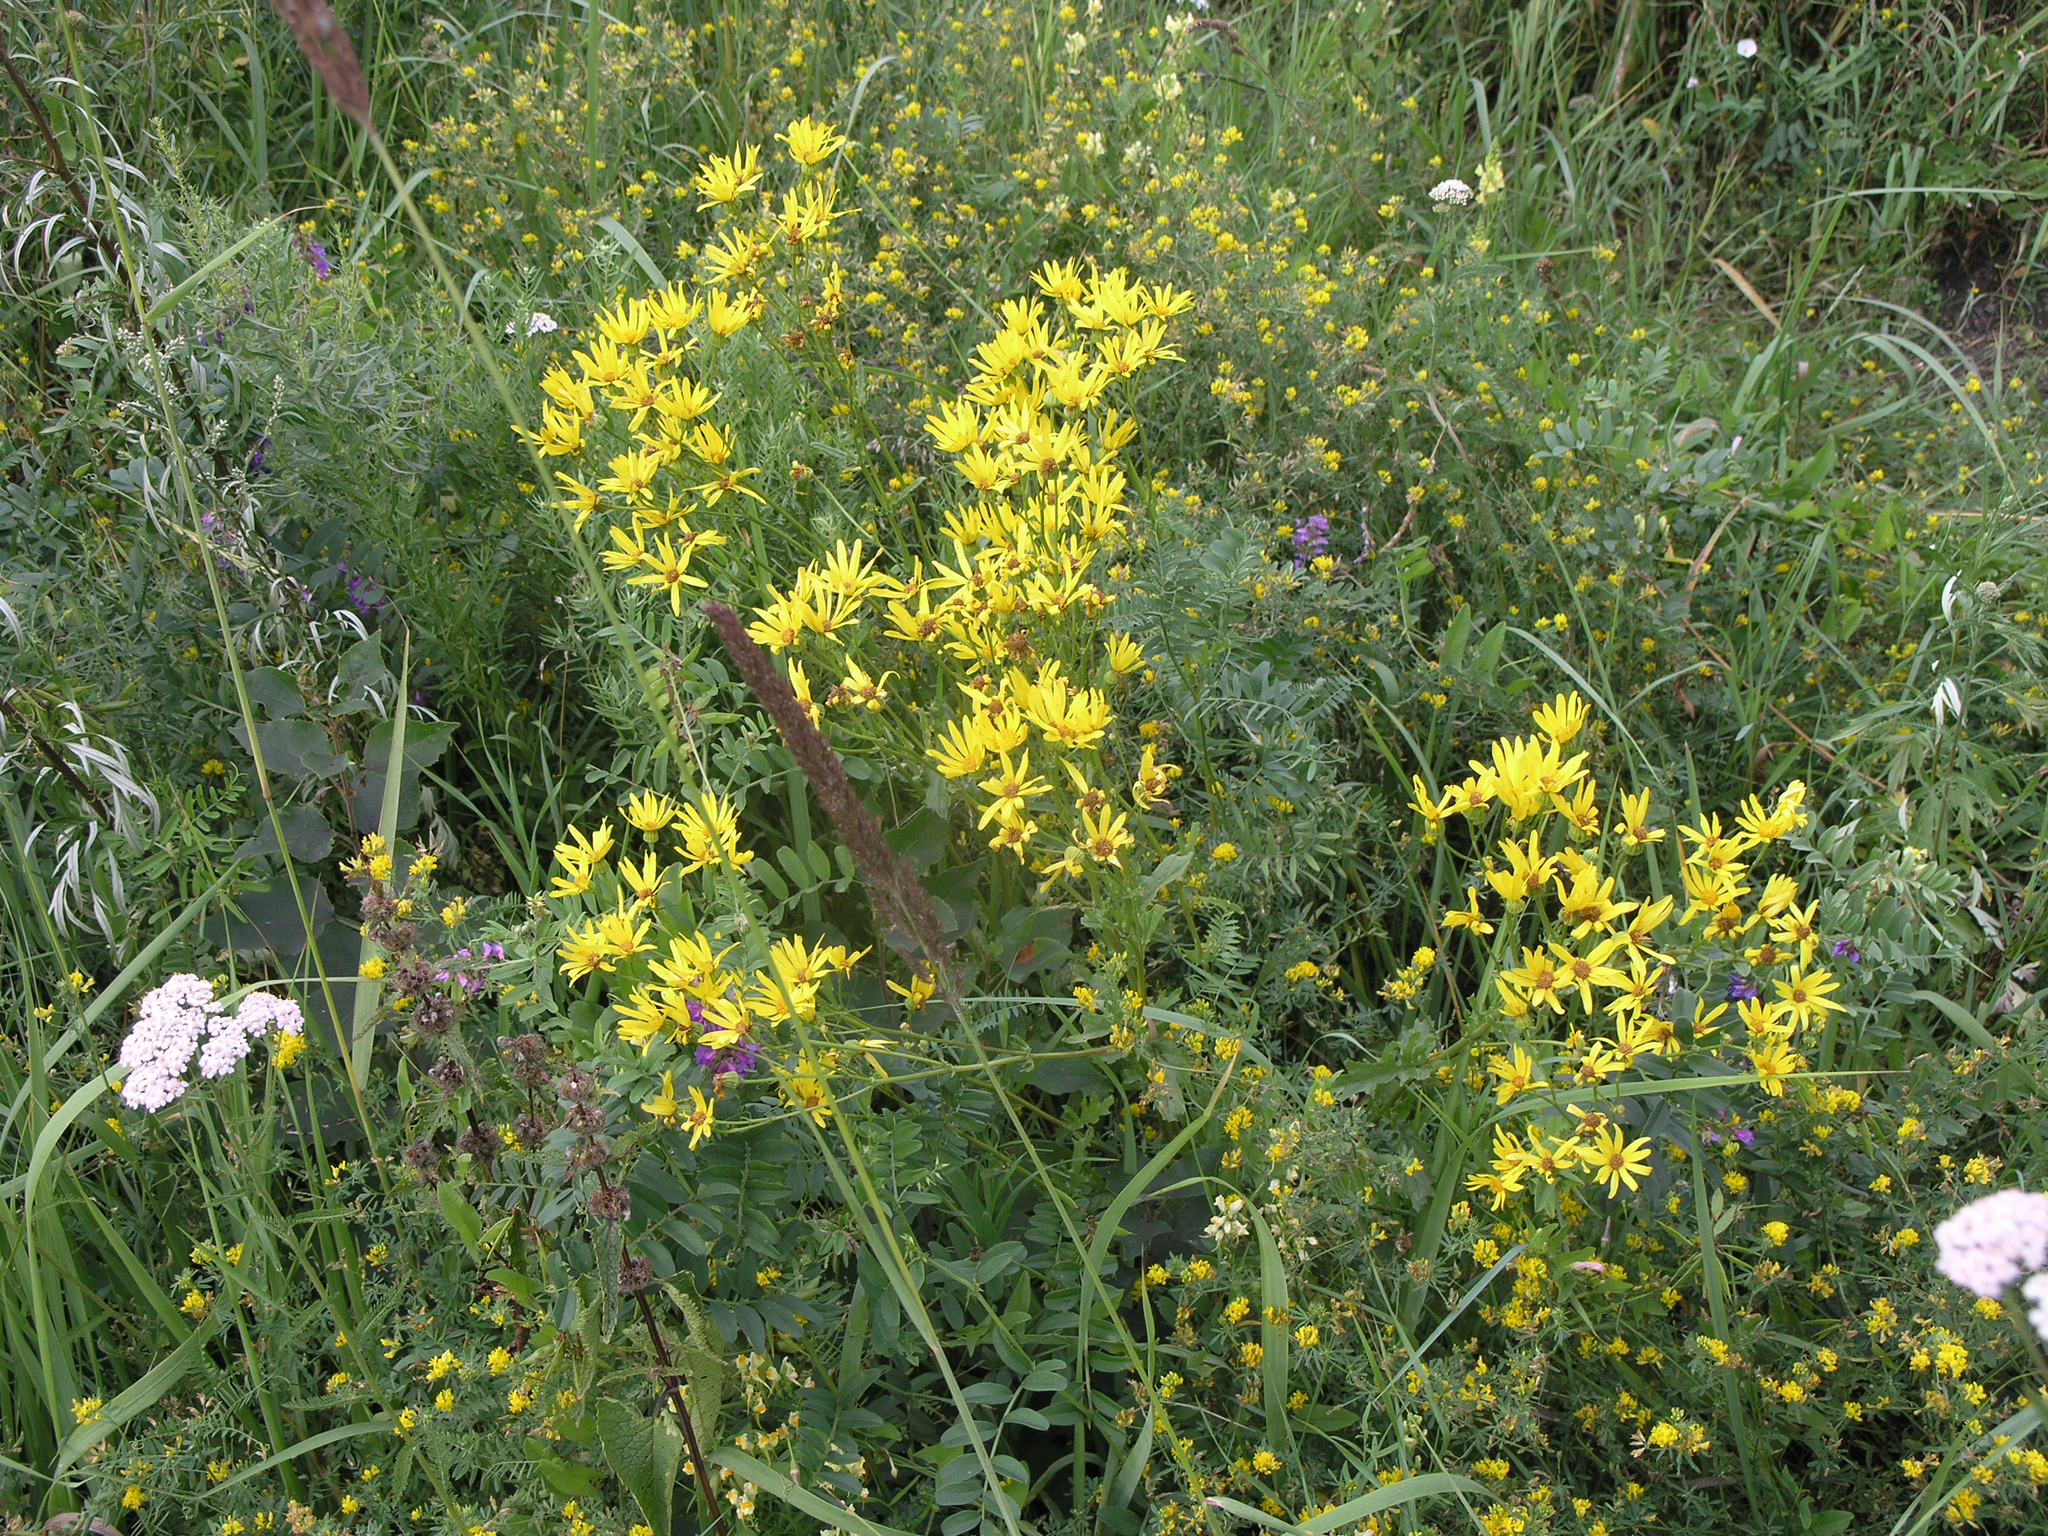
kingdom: Plantae
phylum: Tracheophyta
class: Magnoliopsida
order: Asterales
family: Asteraceae
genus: Jacobaea
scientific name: Jacobaea erucifolia
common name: Hoary ragwort
